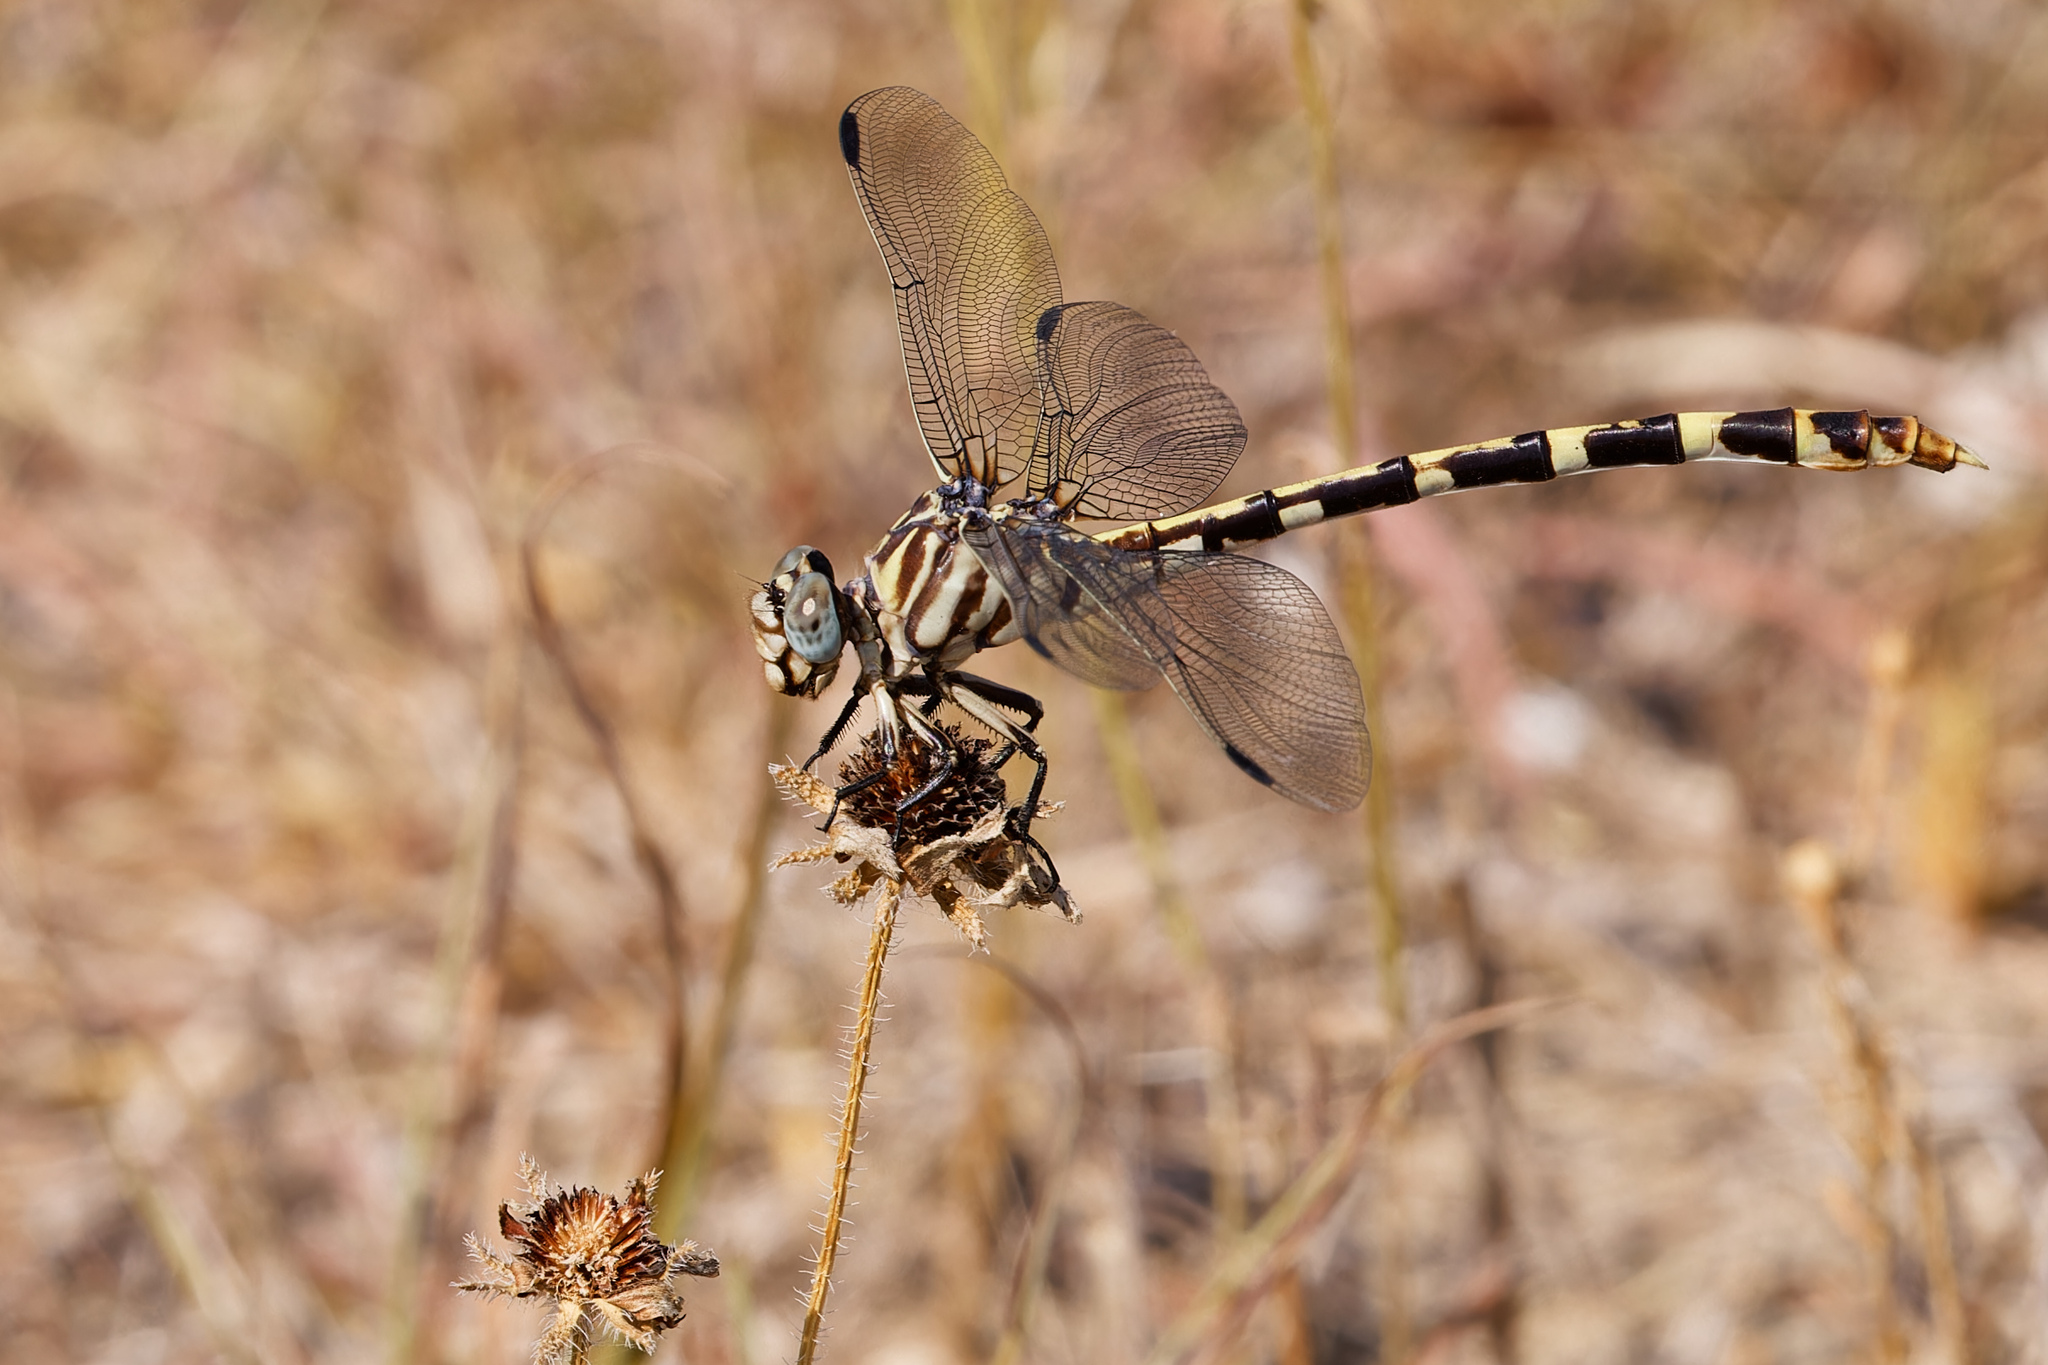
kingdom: Animalia
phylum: Arthropoda
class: Insecta
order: Odonata
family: Gomphidae
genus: Phyllogomphoides
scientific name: Phyllogomphoides stigmatus
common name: Four-striped leaftail
